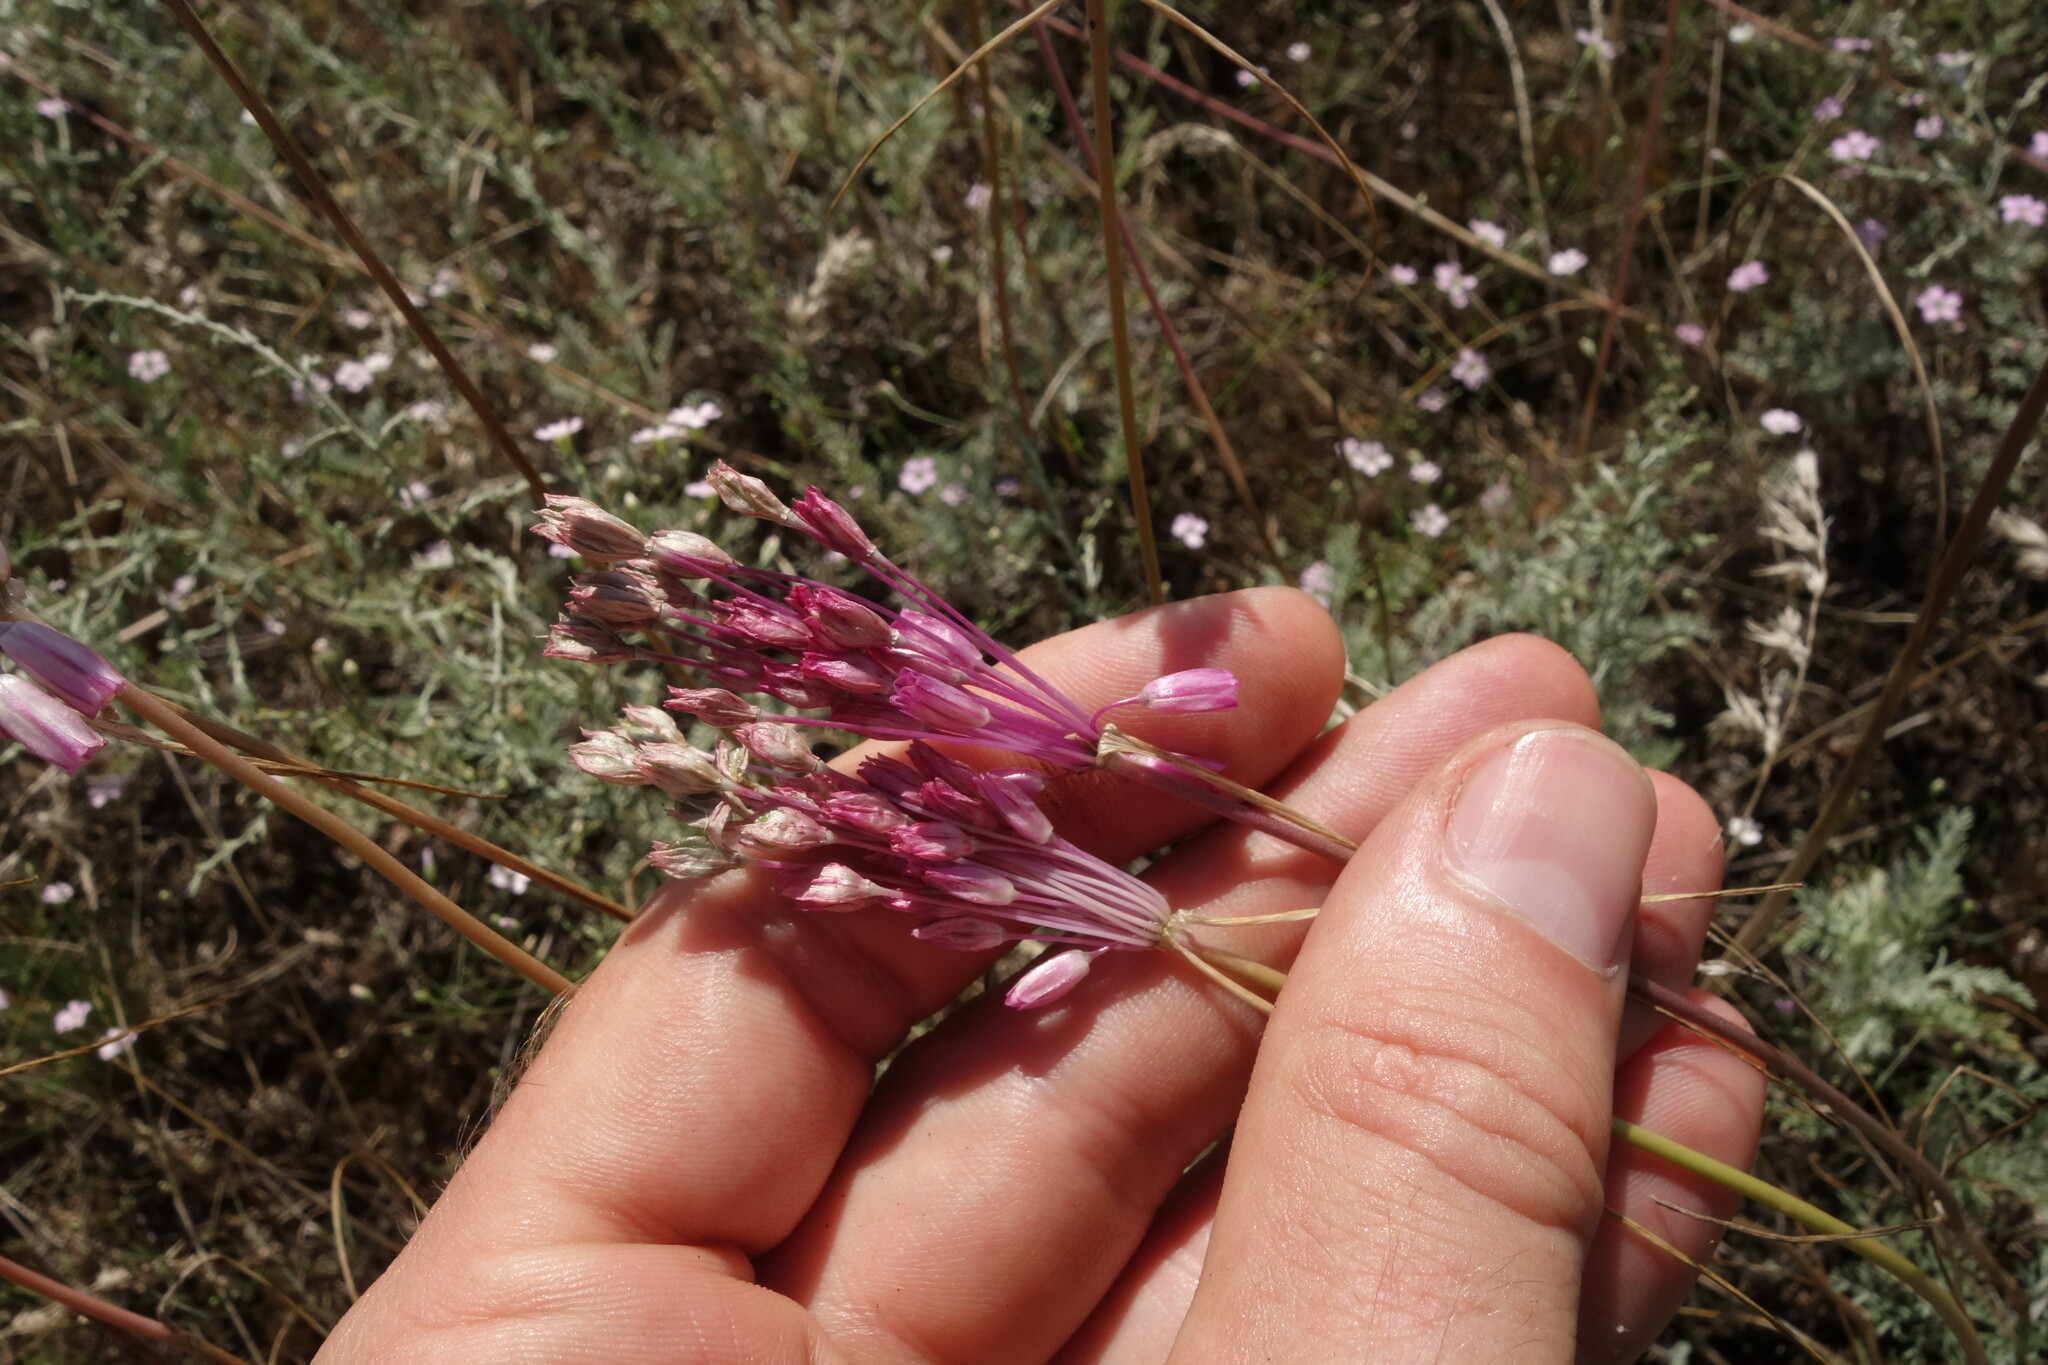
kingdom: Plantae
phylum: Tracheophyta
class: Liliopsida
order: Asparagales
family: Amaryllidaceae
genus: Allium
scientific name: Allium praescissum
